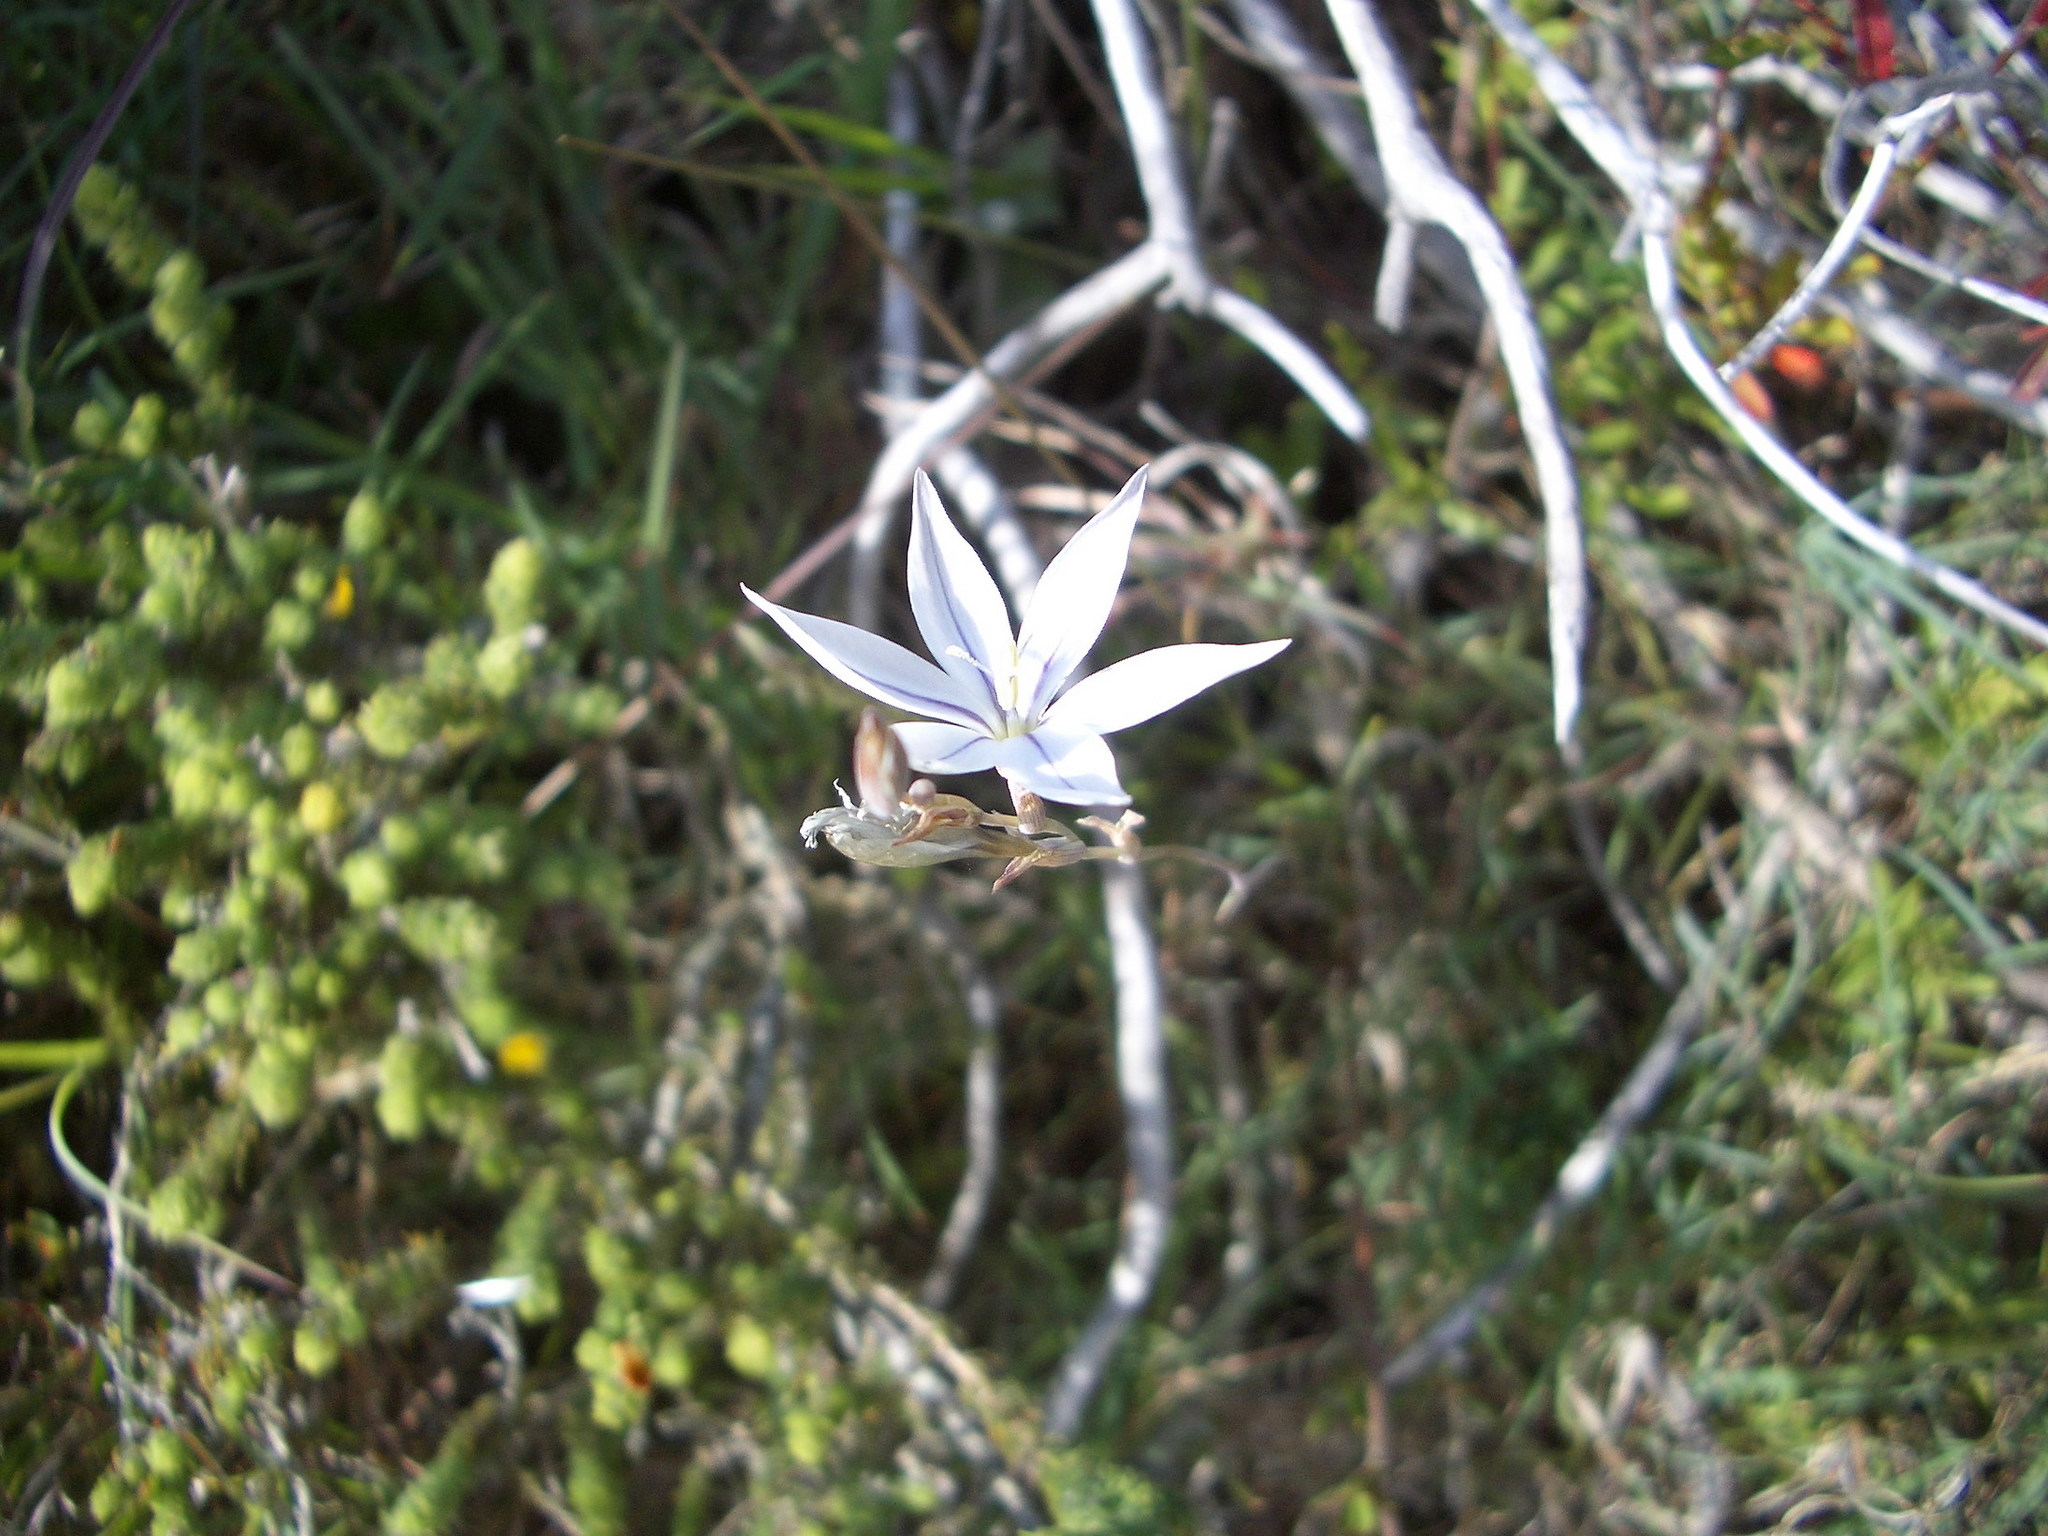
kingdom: Plantae
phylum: Tracheophyta
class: Liliopsida
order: Asparagales
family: Iridaceae
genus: Gladiolus
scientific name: Gladiolus stellatus
